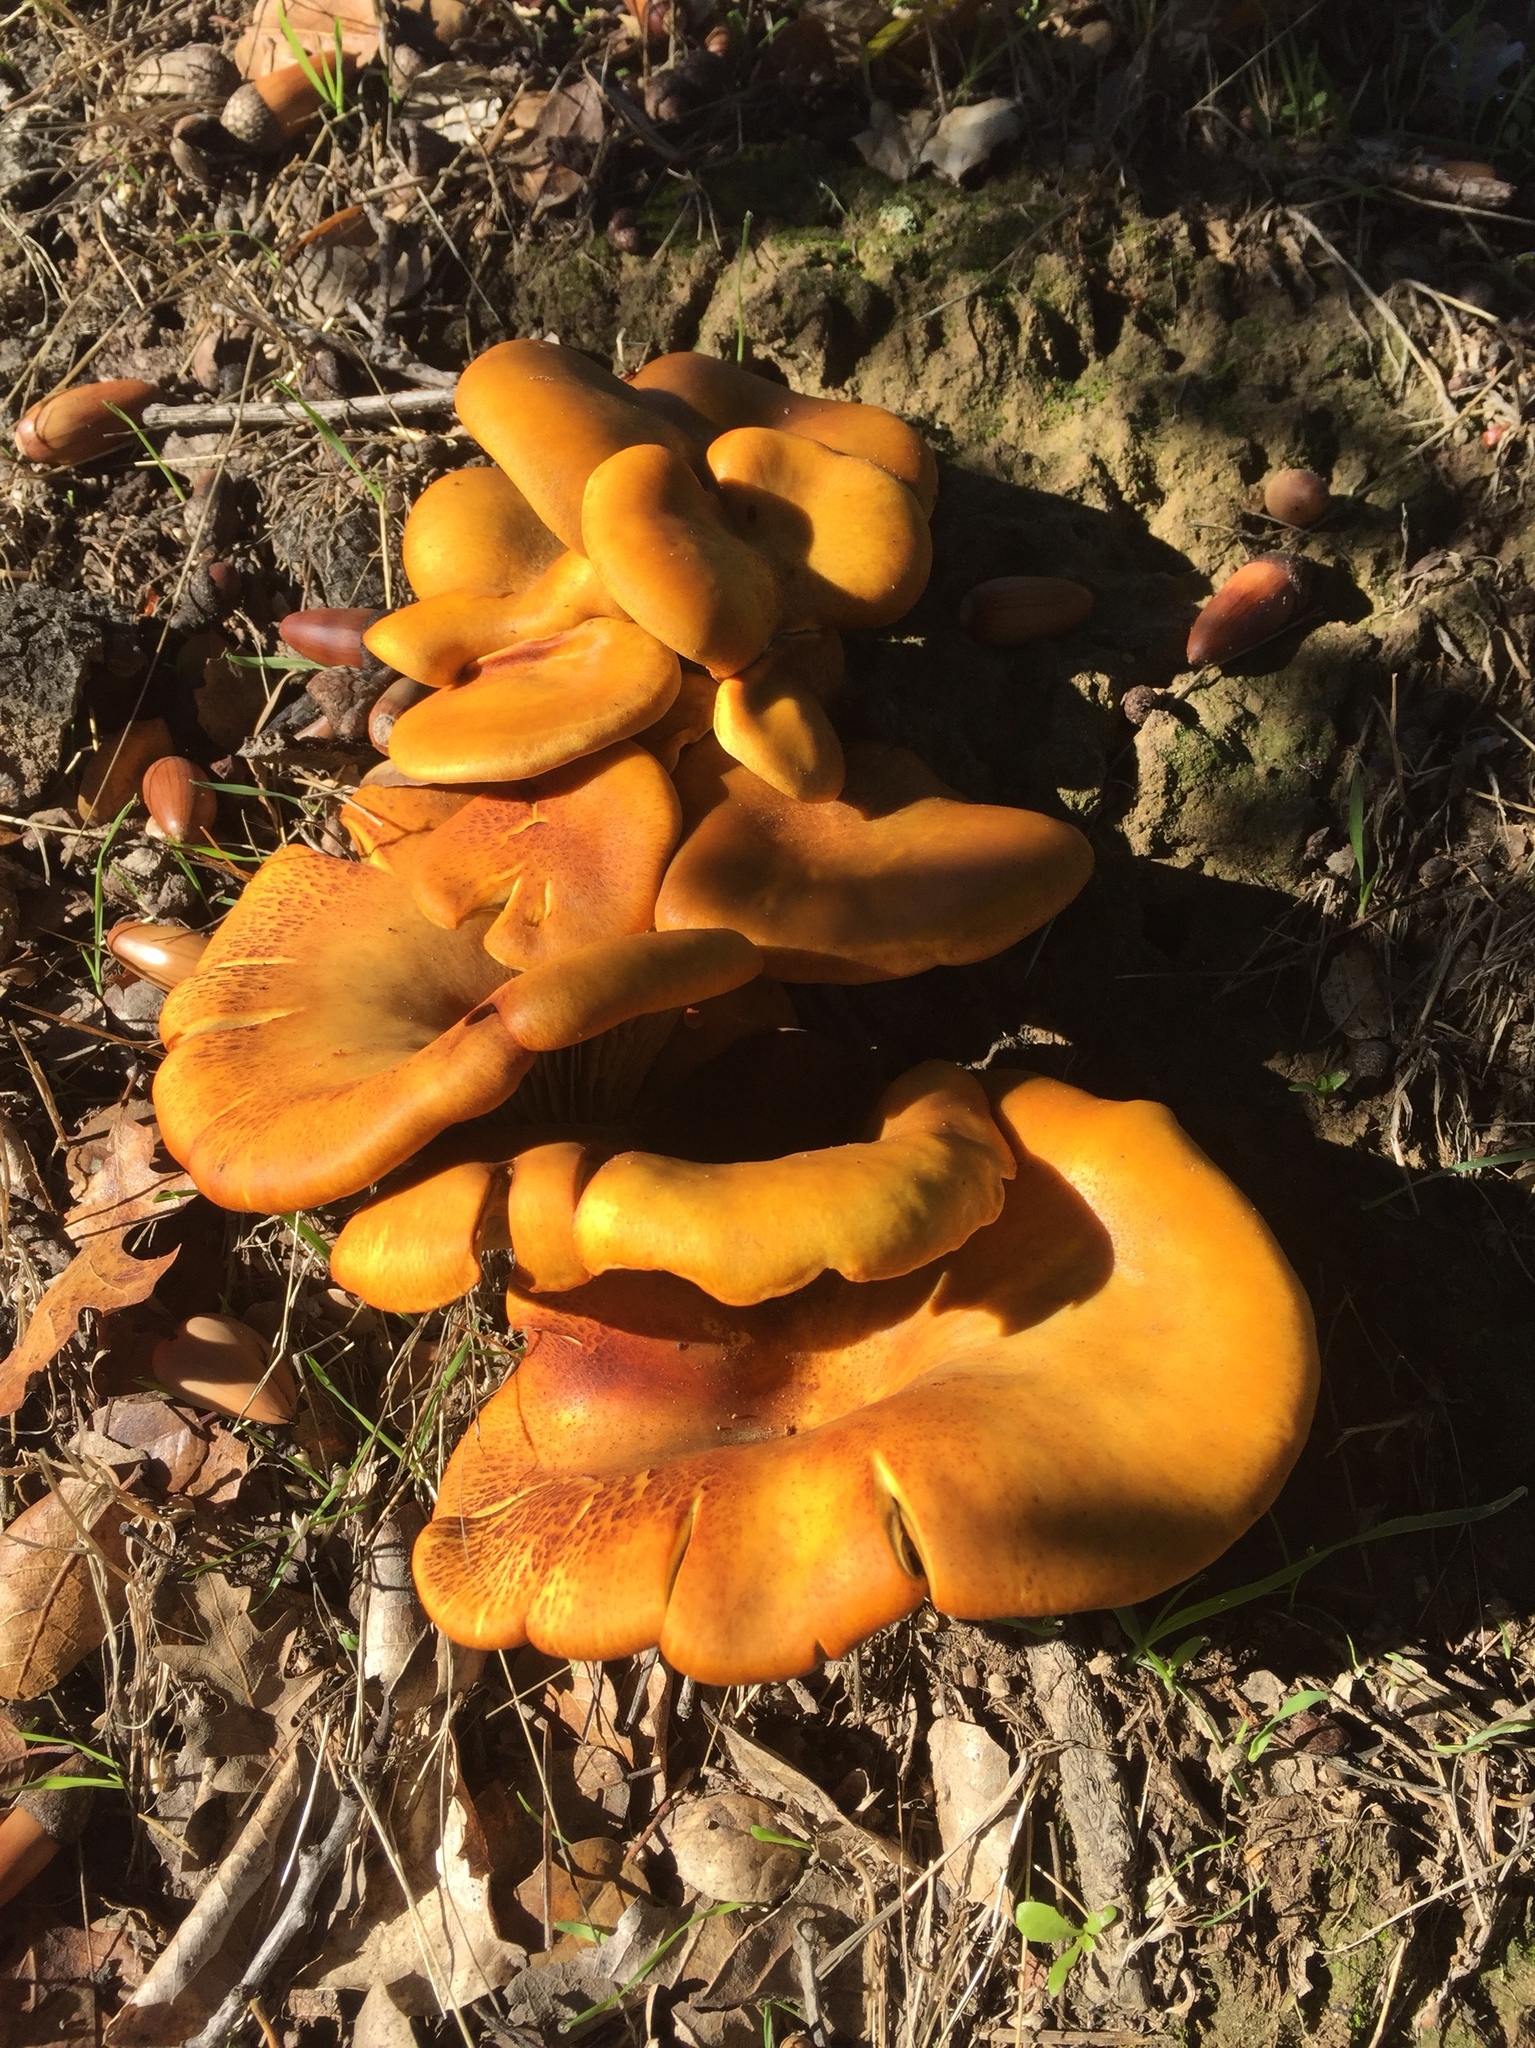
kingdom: Fungi
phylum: Basidiomycota
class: Agaricomycetes
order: Agaricales
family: Omphalotaceae
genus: Omphalotus
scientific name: Omphalotus olivascens
